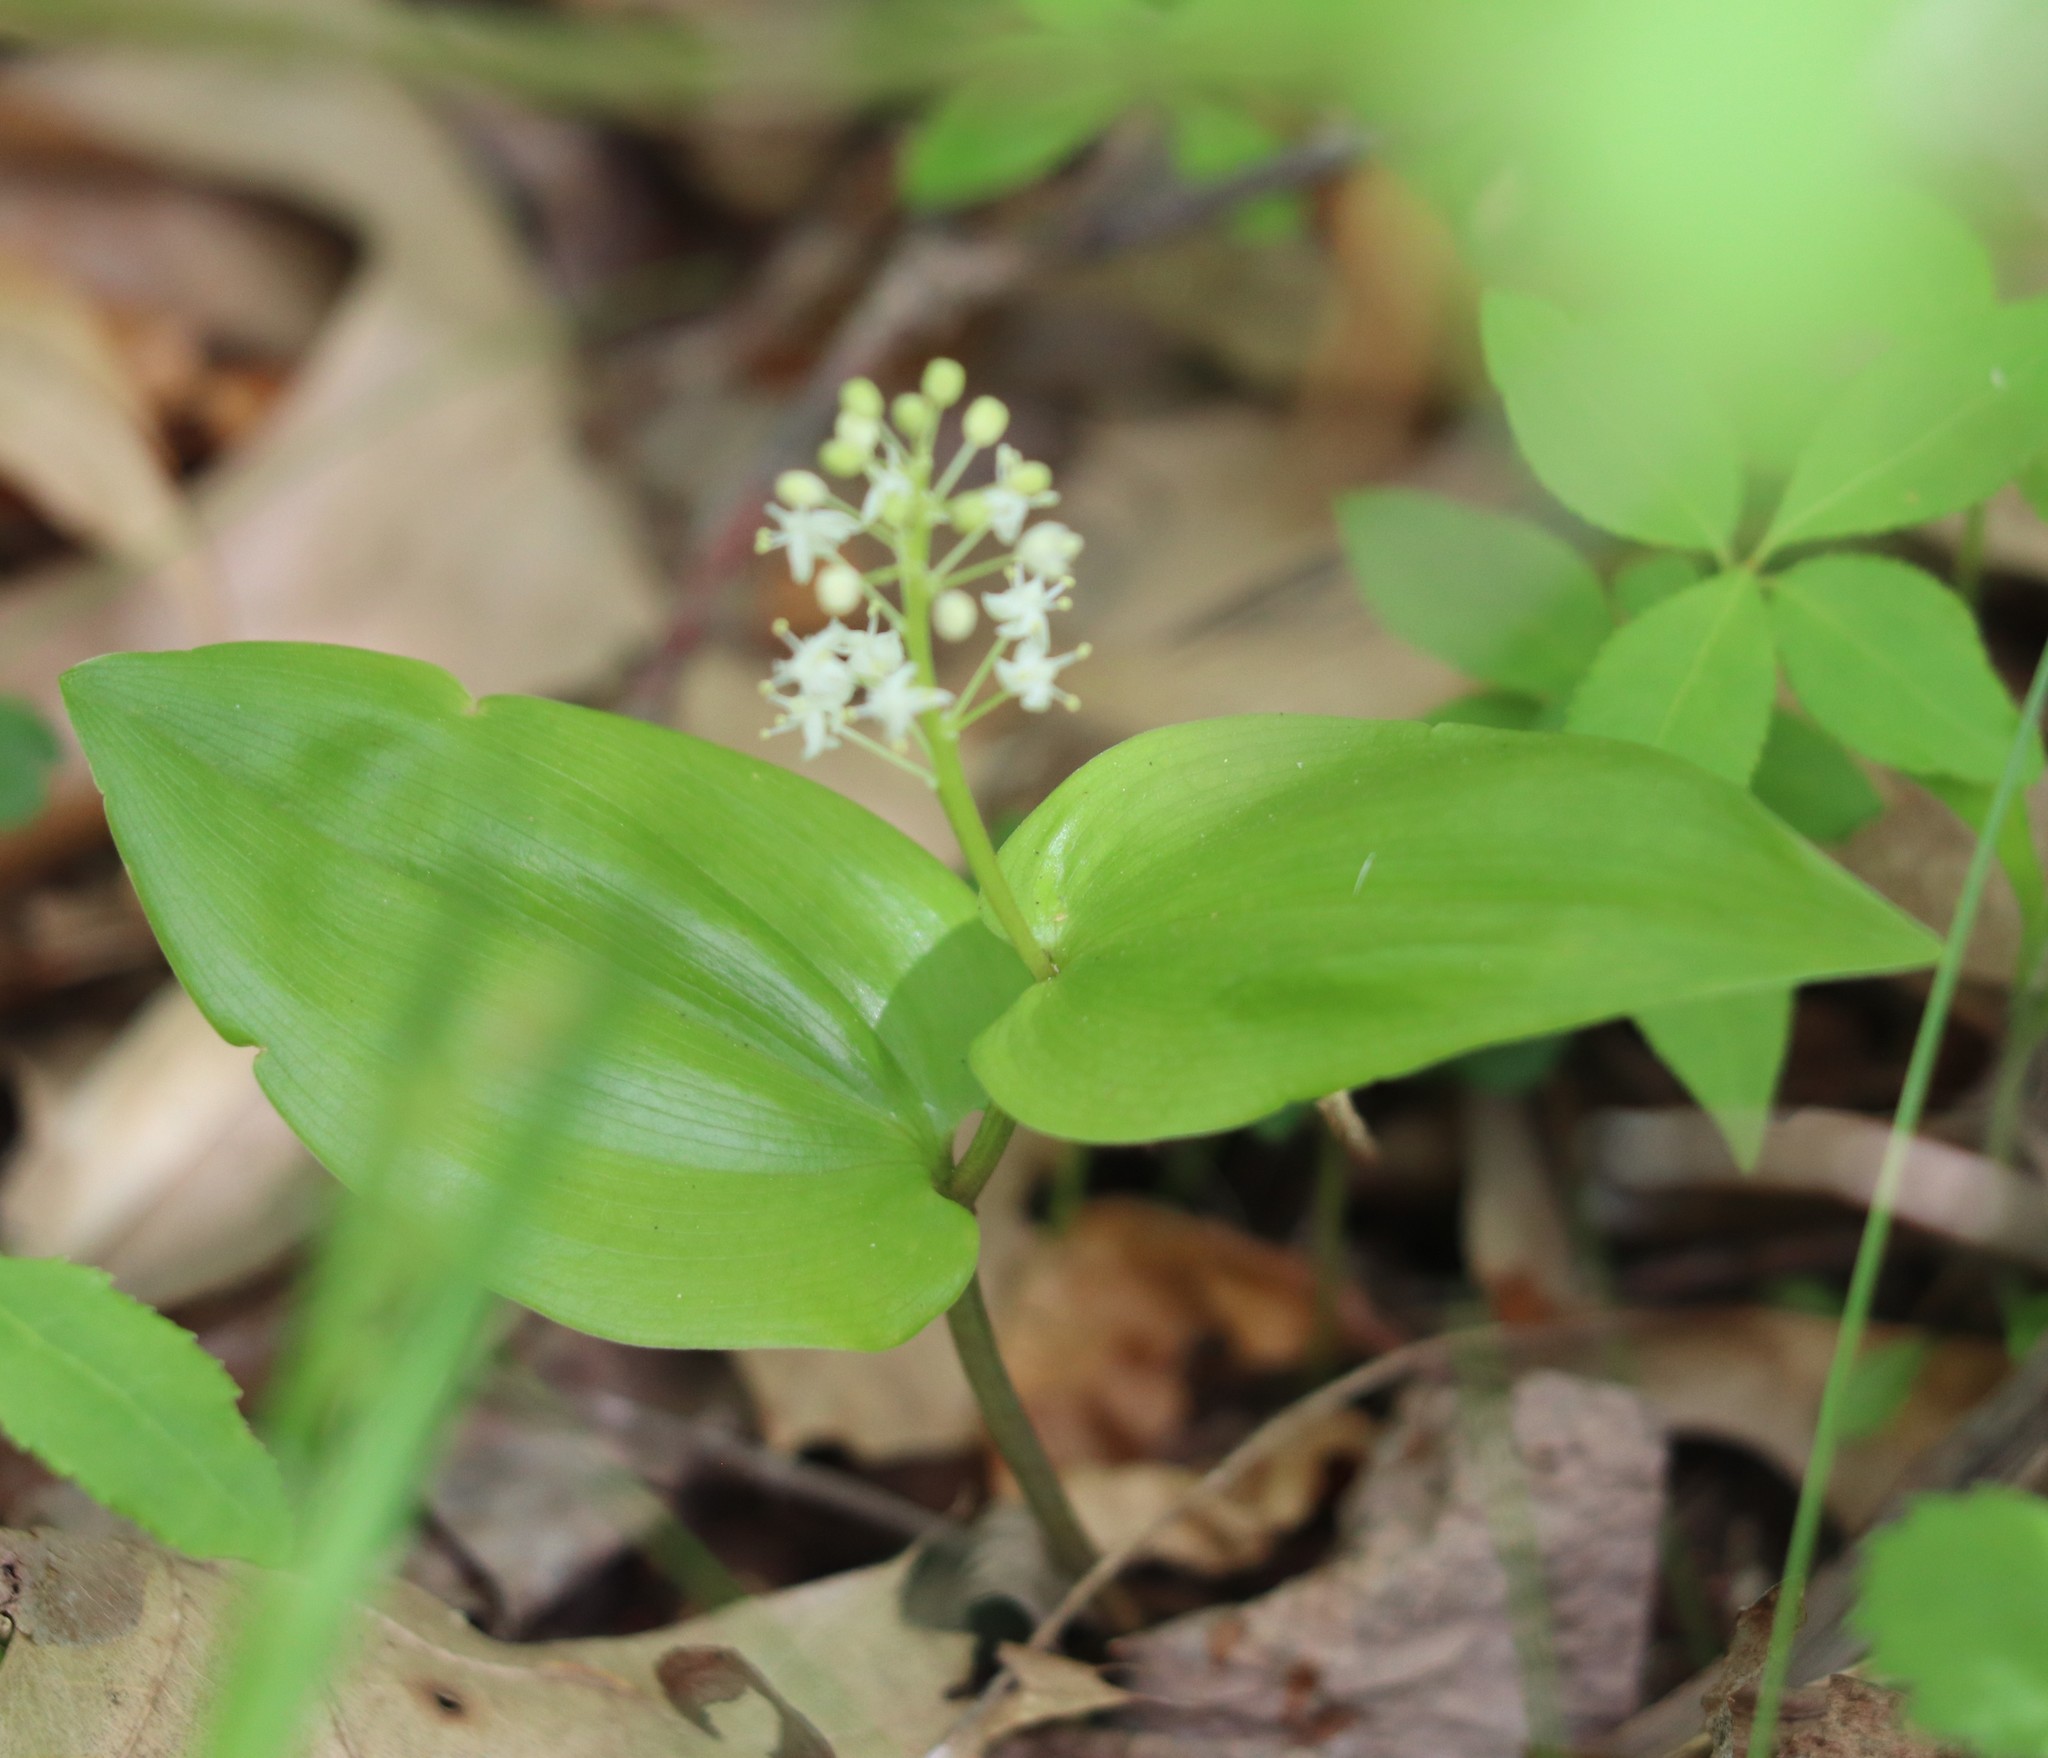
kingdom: Plantae
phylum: Tracheophyta
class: Liliopsida
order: Asparagales
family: Asparagaceae
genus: Maianthemum
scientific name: Maianthemum canadense
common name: False lily-of-the-valley
